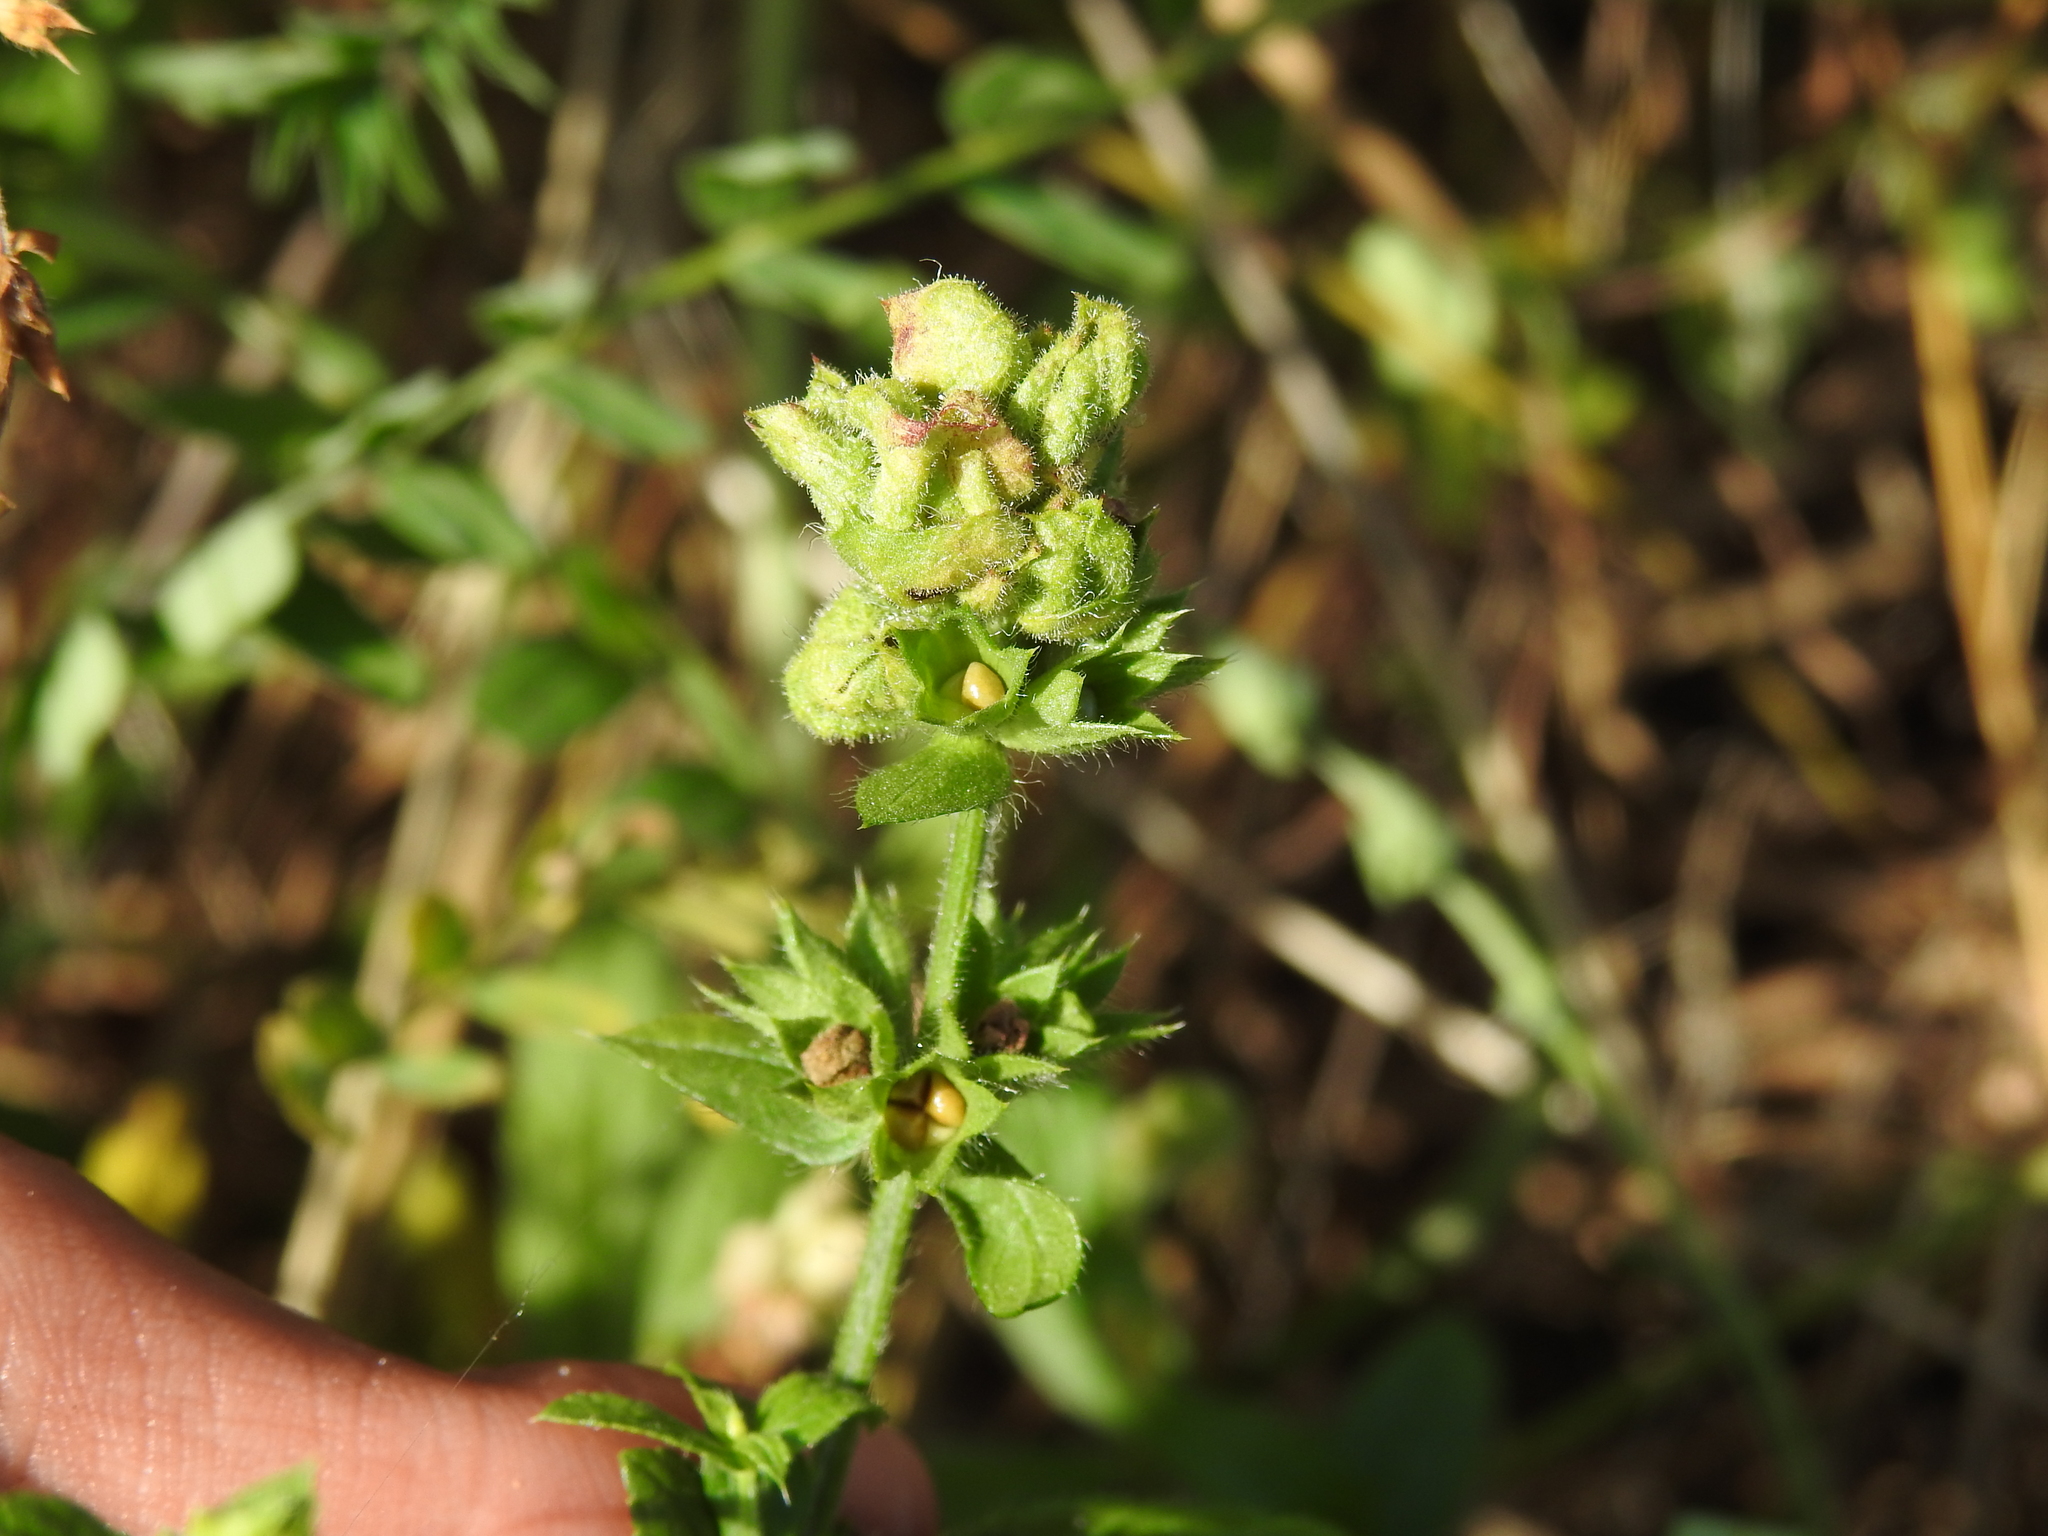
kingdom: Animalia
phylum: Arthropoda
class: Insecta
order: Diptera
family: Cecidomyiidae
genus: Wachtliella
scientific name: Wachtliella stachydis
